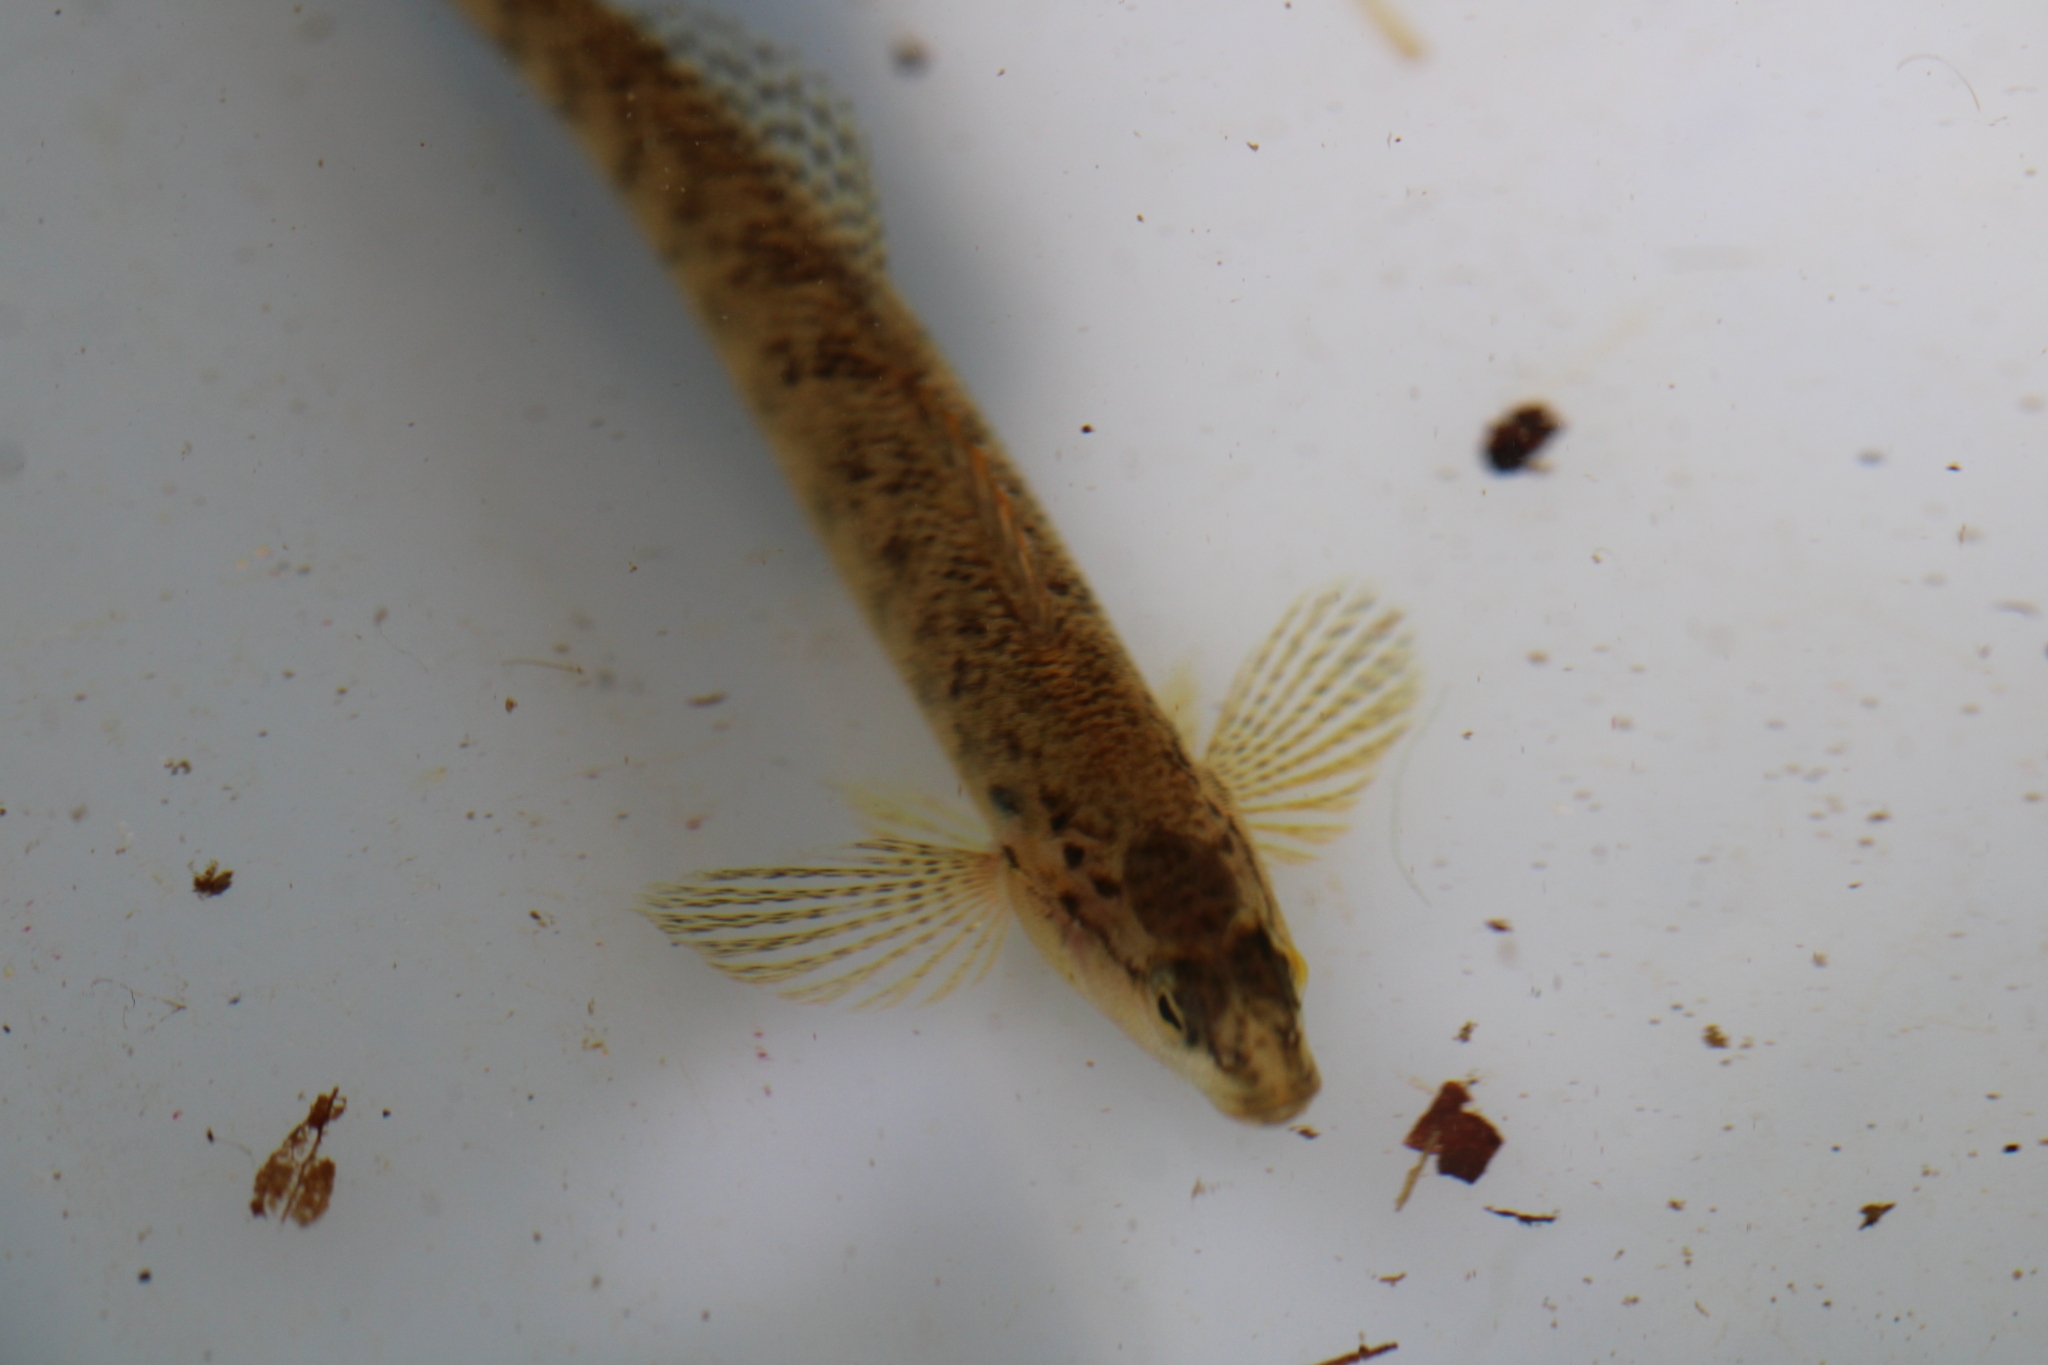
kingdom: Animalia
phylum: Chordata
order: Perciformes
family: Percidae
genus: Etheostoma
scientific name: Etheostoma flabellare
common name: Fantail darter
